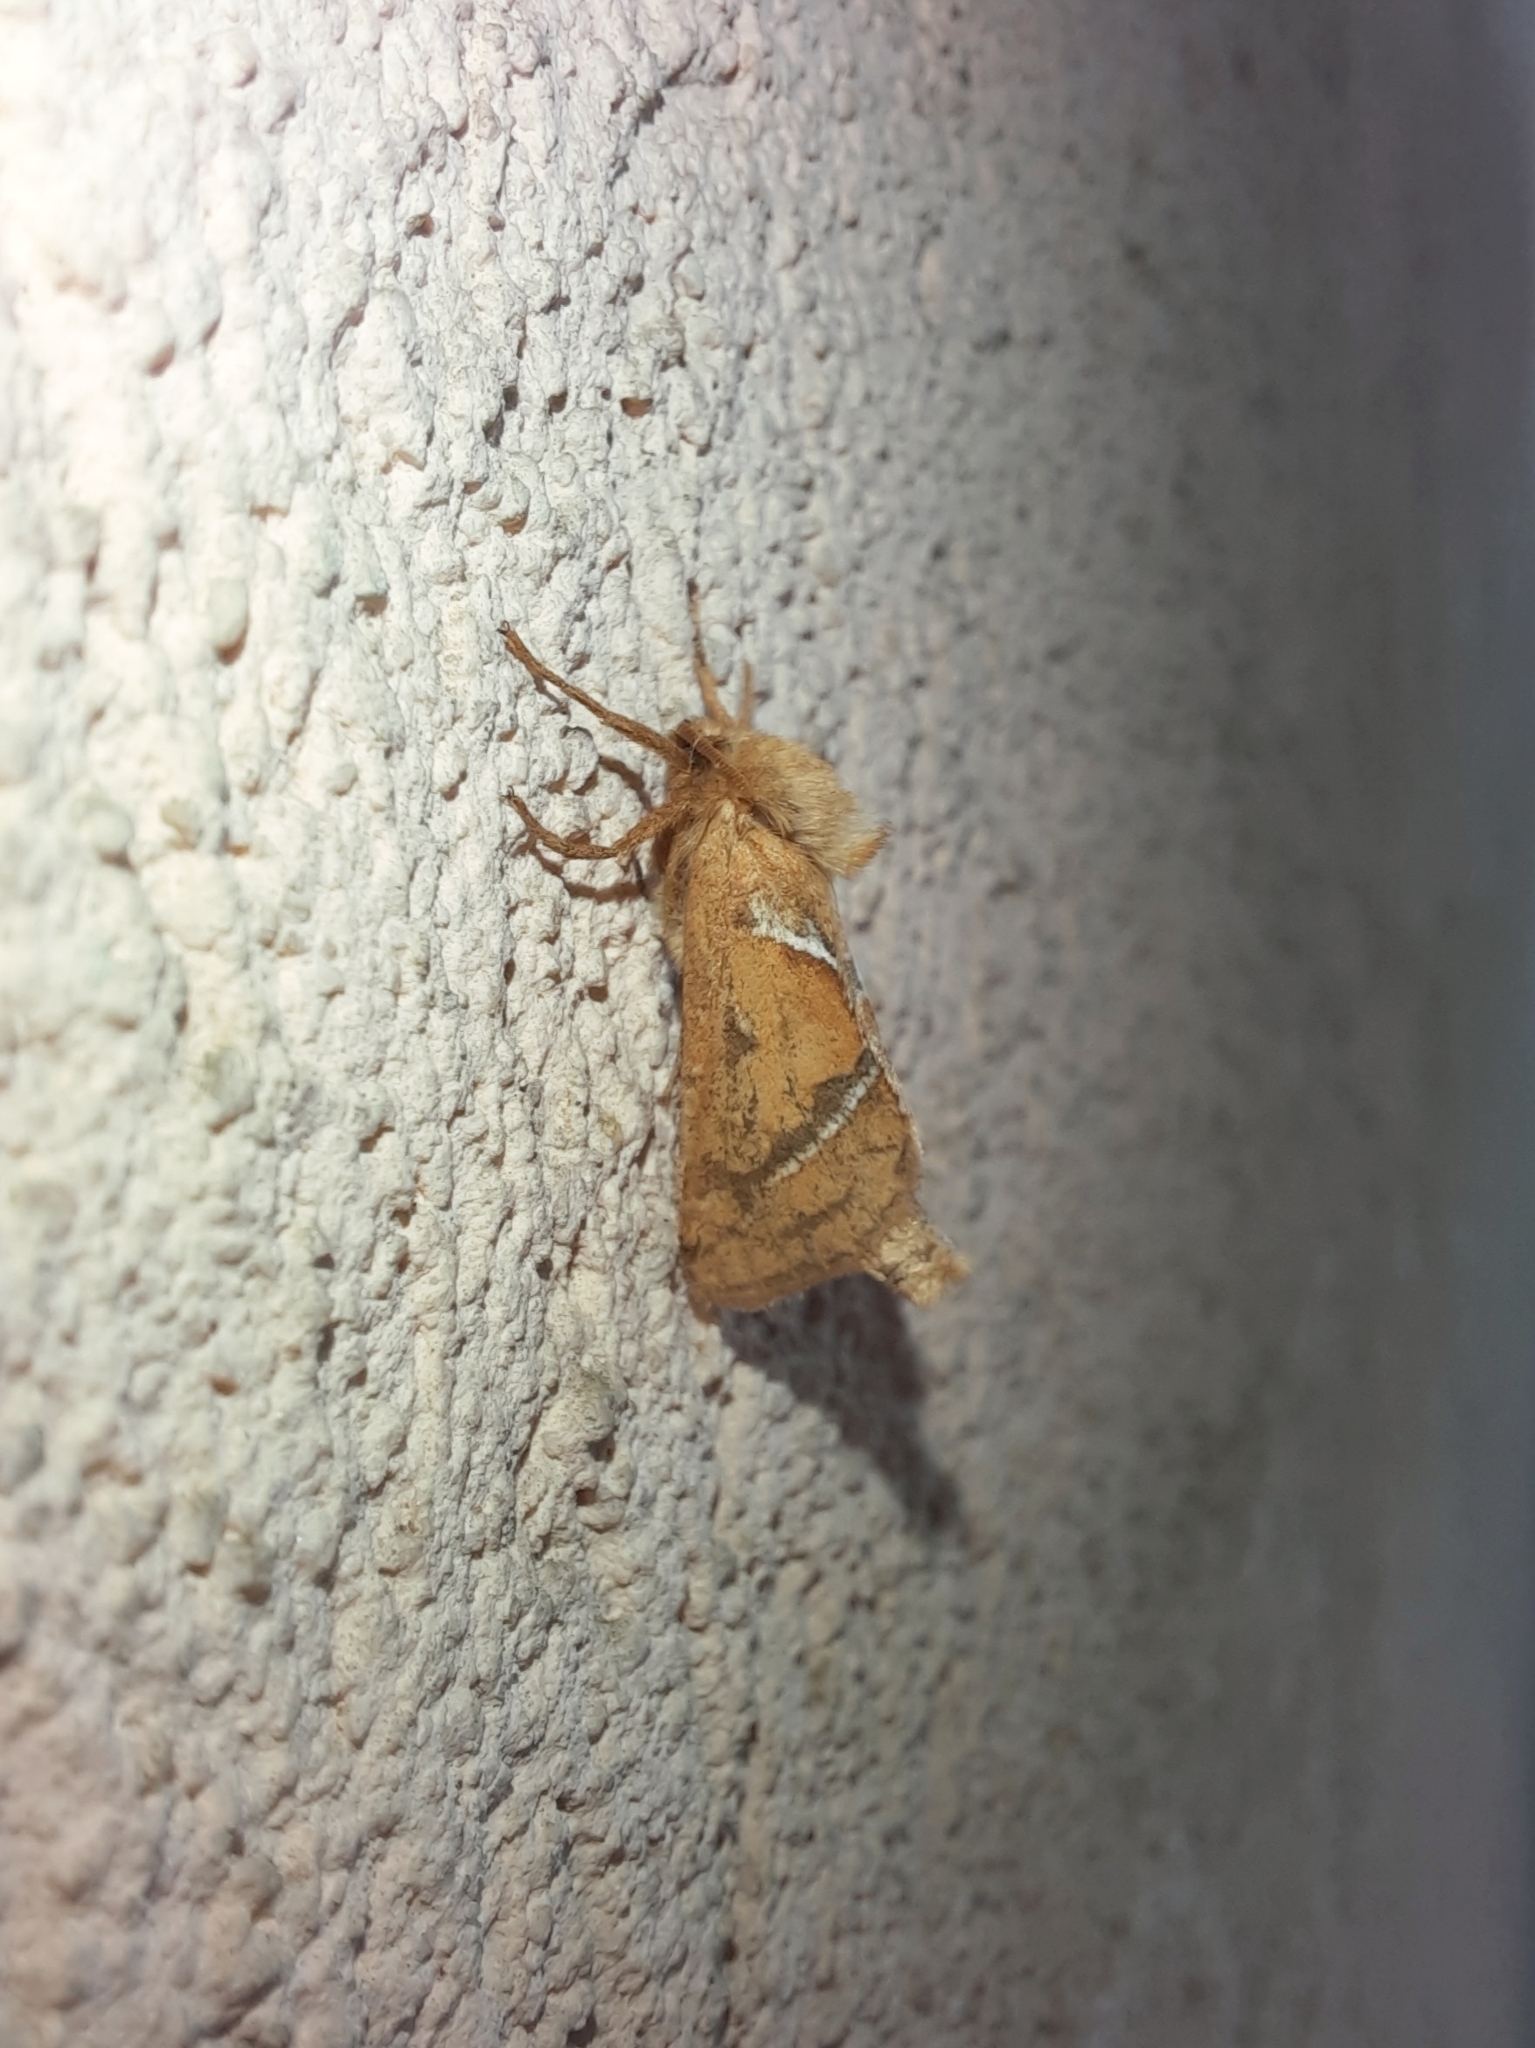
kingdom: Animalia
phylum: Arthropoda
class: Insecta
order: Lepidoptera
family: Hepialidae
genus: Triodia
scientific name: Triodia sylvina
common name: Orange swift
